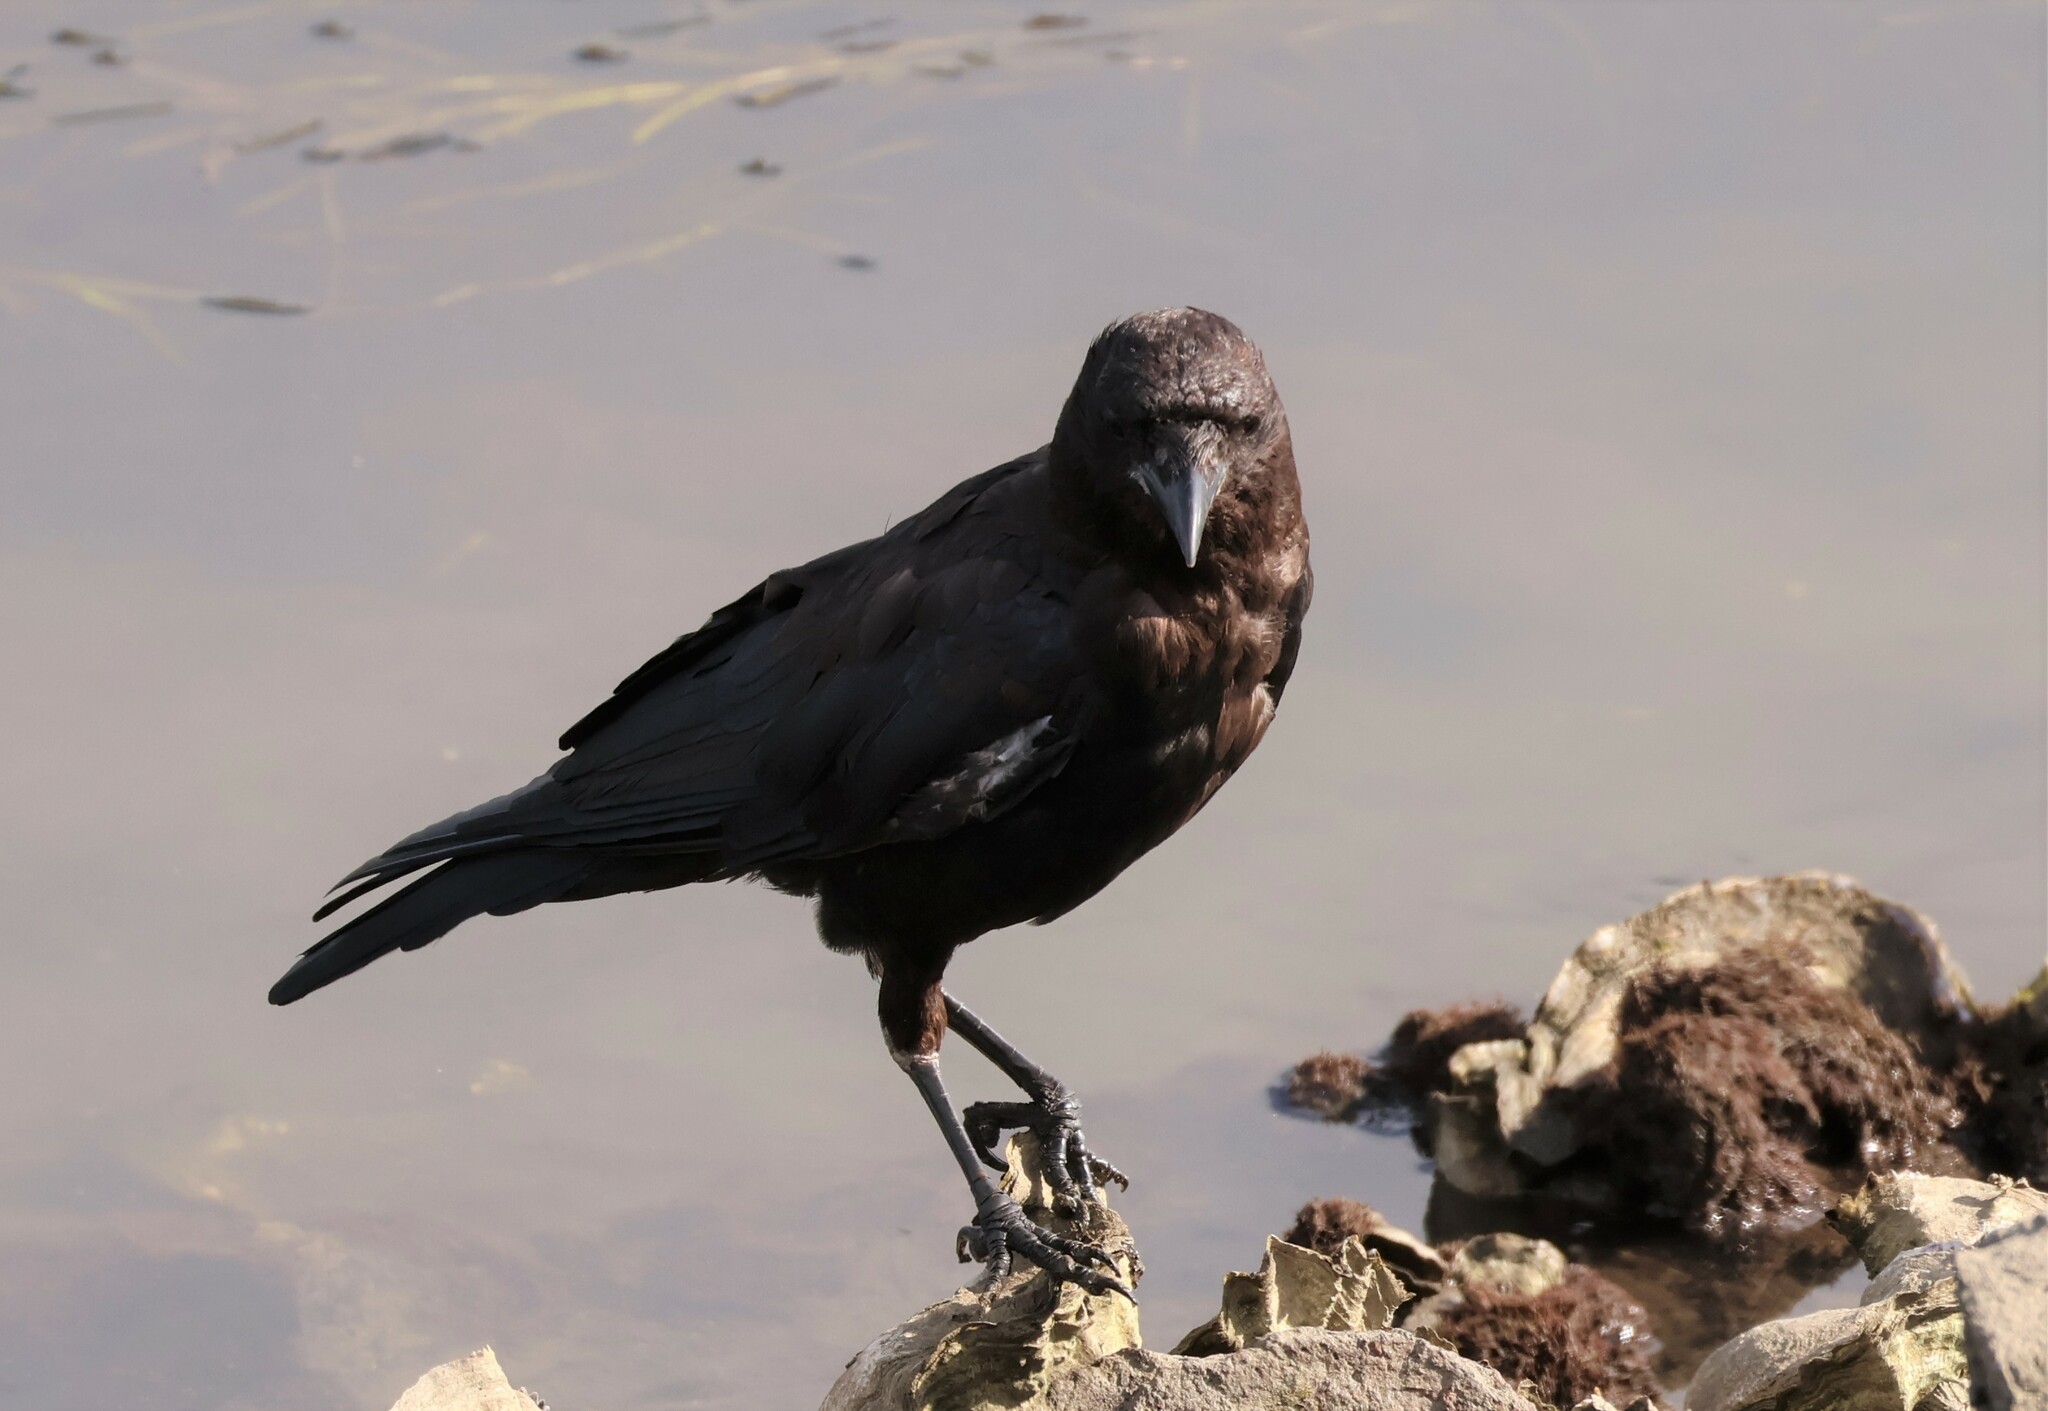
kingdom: Animalia
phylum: Chordata
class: Aves
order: Passeriformes
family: Corvidae
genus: Corvus
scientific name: Corvus brachyrhynchos
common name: American crow
